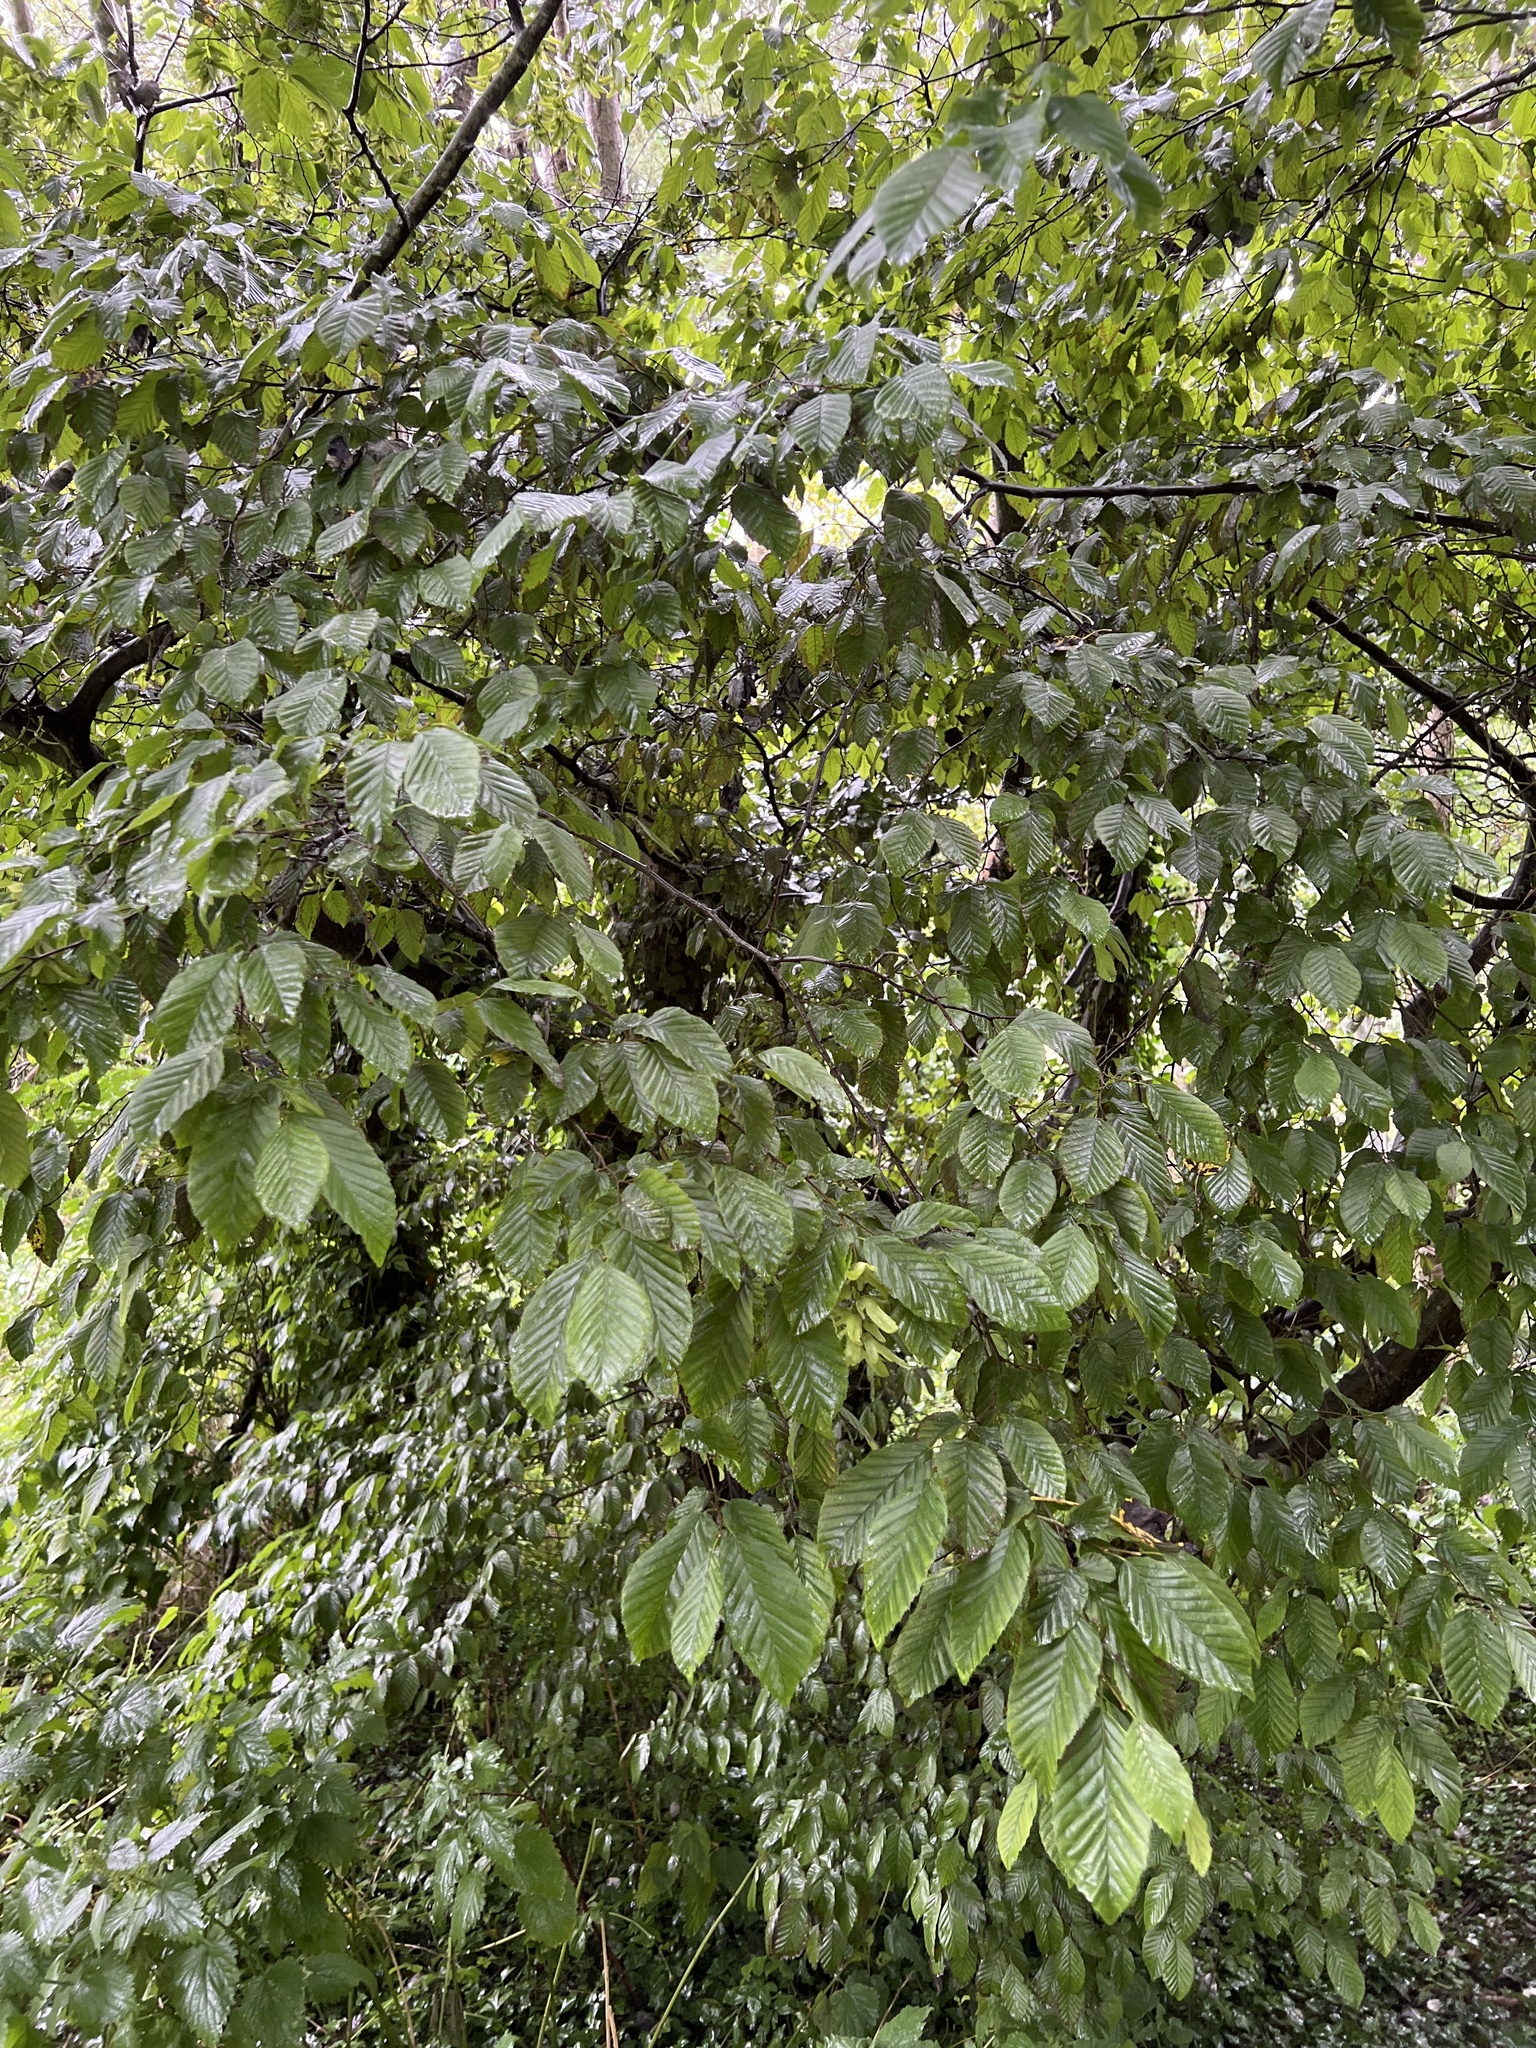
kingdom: Plantae
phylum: Tracheophyta
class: Magnoliopsida
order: Fagales
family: Betulaceae
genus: Carpinus
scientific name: Carpinus betulus
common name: Hornbeam
